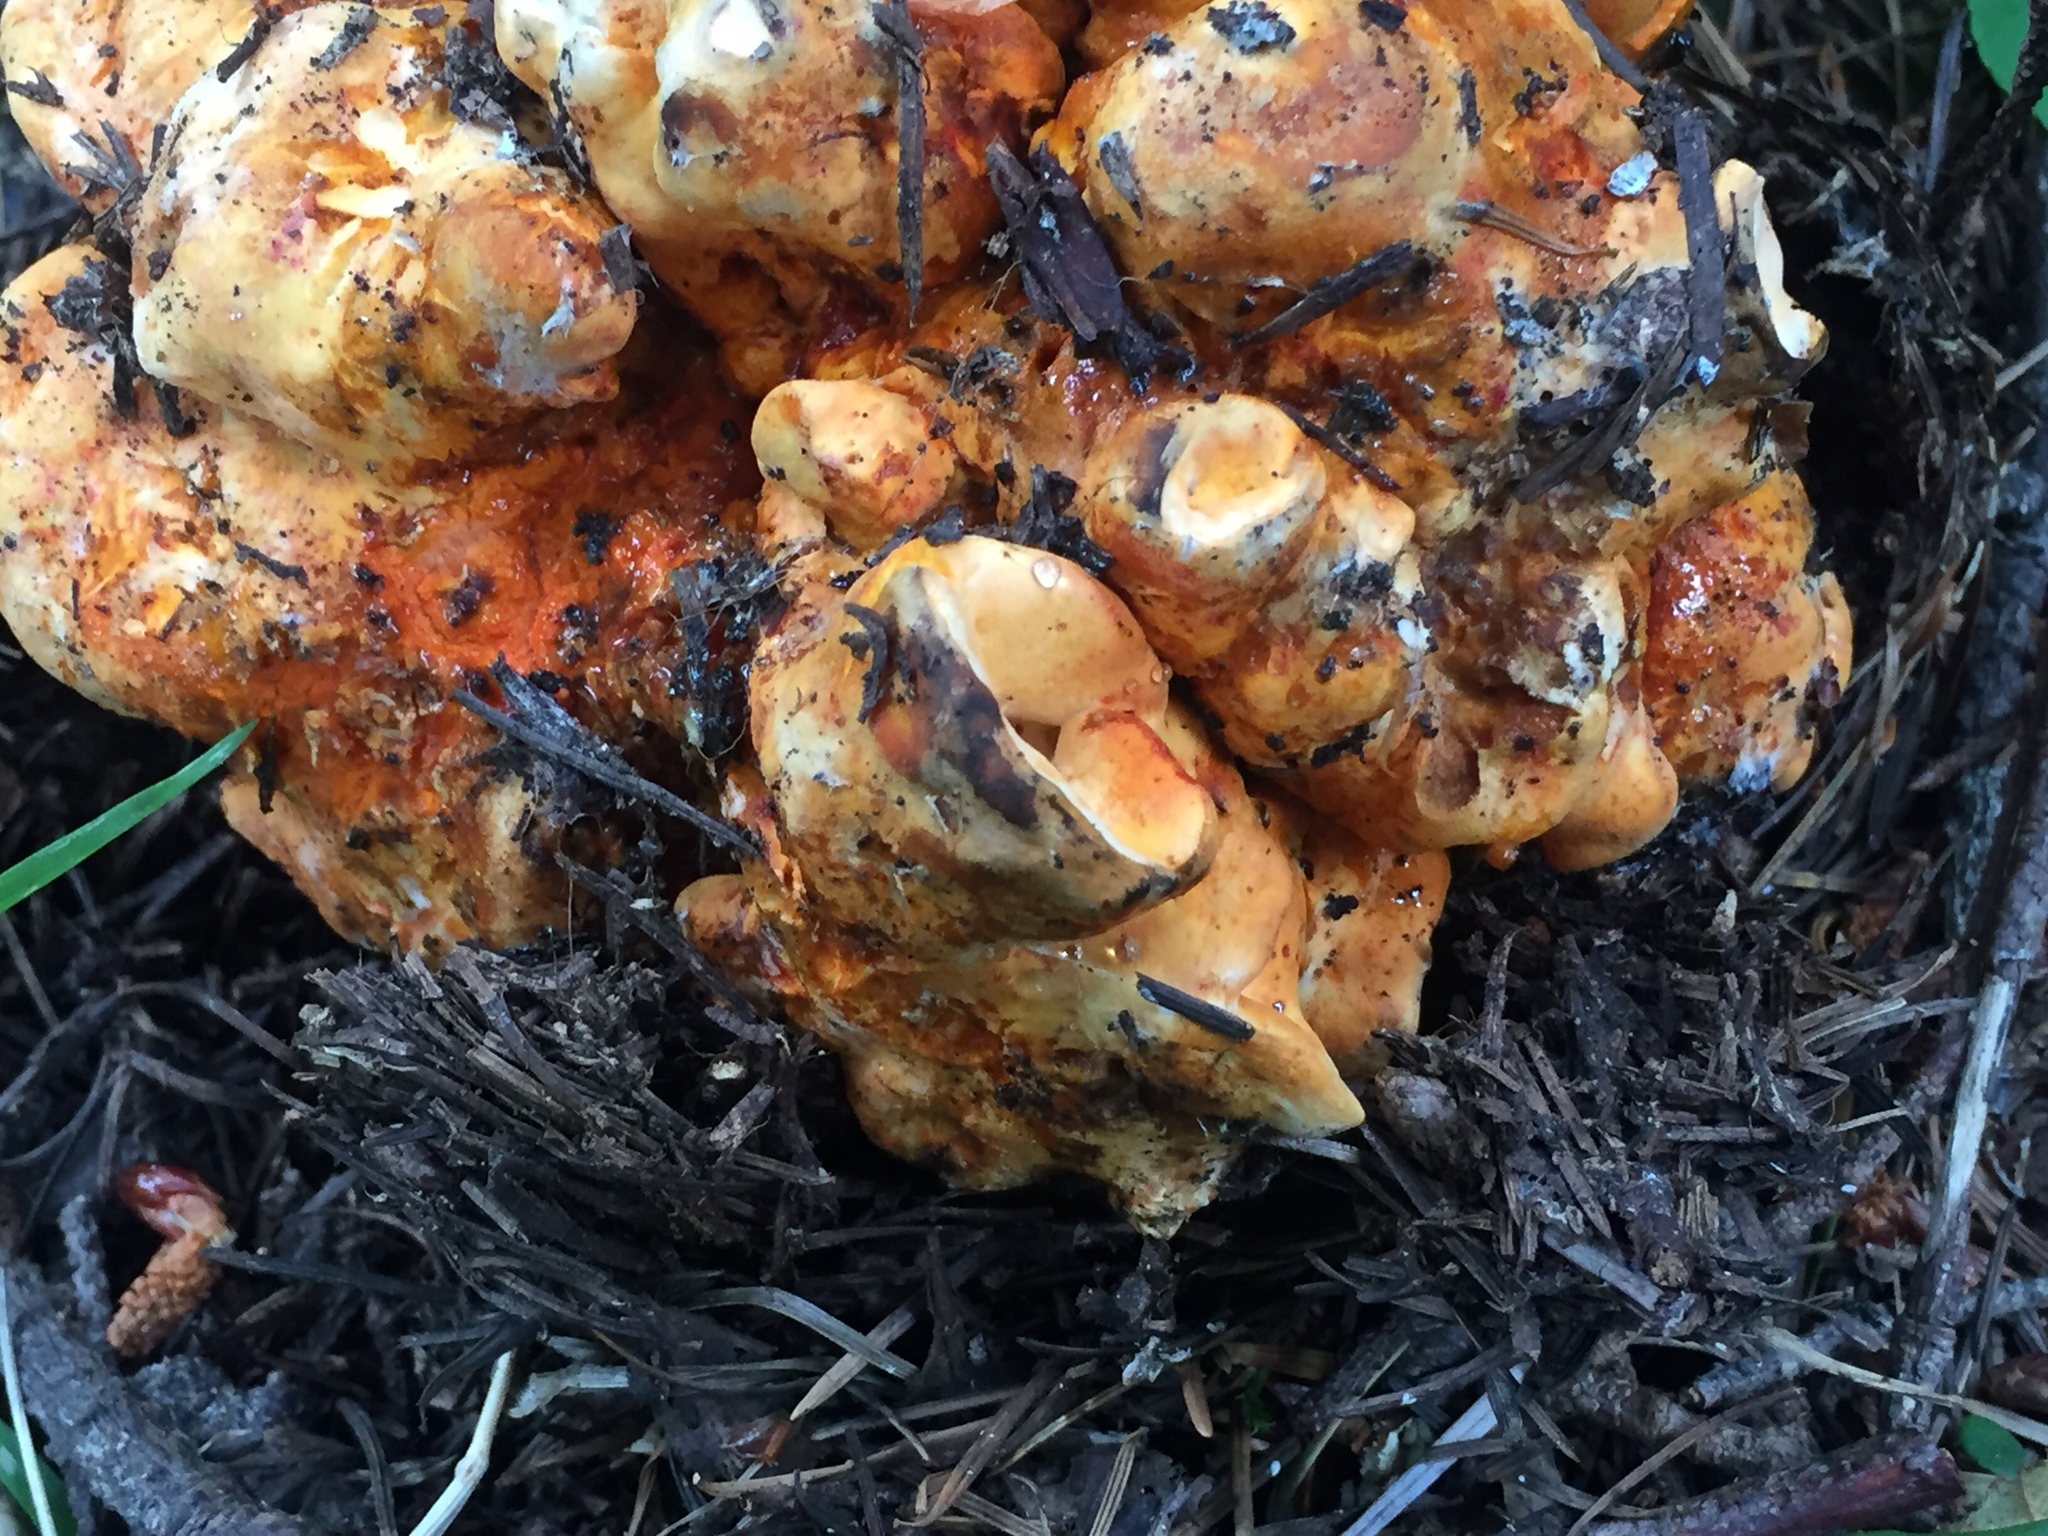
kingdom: Fungi
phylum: Ascomycota
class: Sordariomycetes
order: Hypocreales
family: Hypocreaceae
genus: Hypomyces
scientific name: Hypomyces lactifluorum
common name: Lobster mushroom
